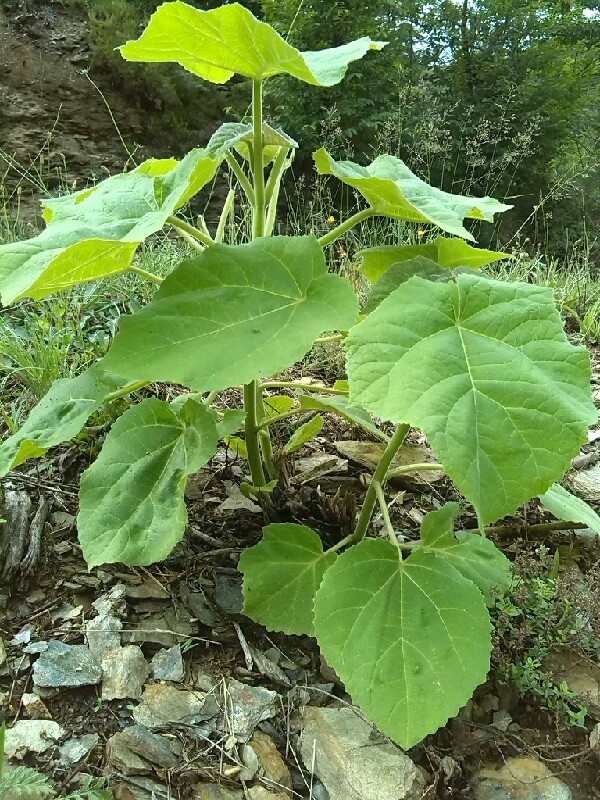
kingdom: Plantae
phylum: Tracheophyta
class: Magnoliopsida
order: Malvales
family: Malvaceae
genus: Abutilon
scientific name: Abutilon theophrasti
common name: Velvetleaf
